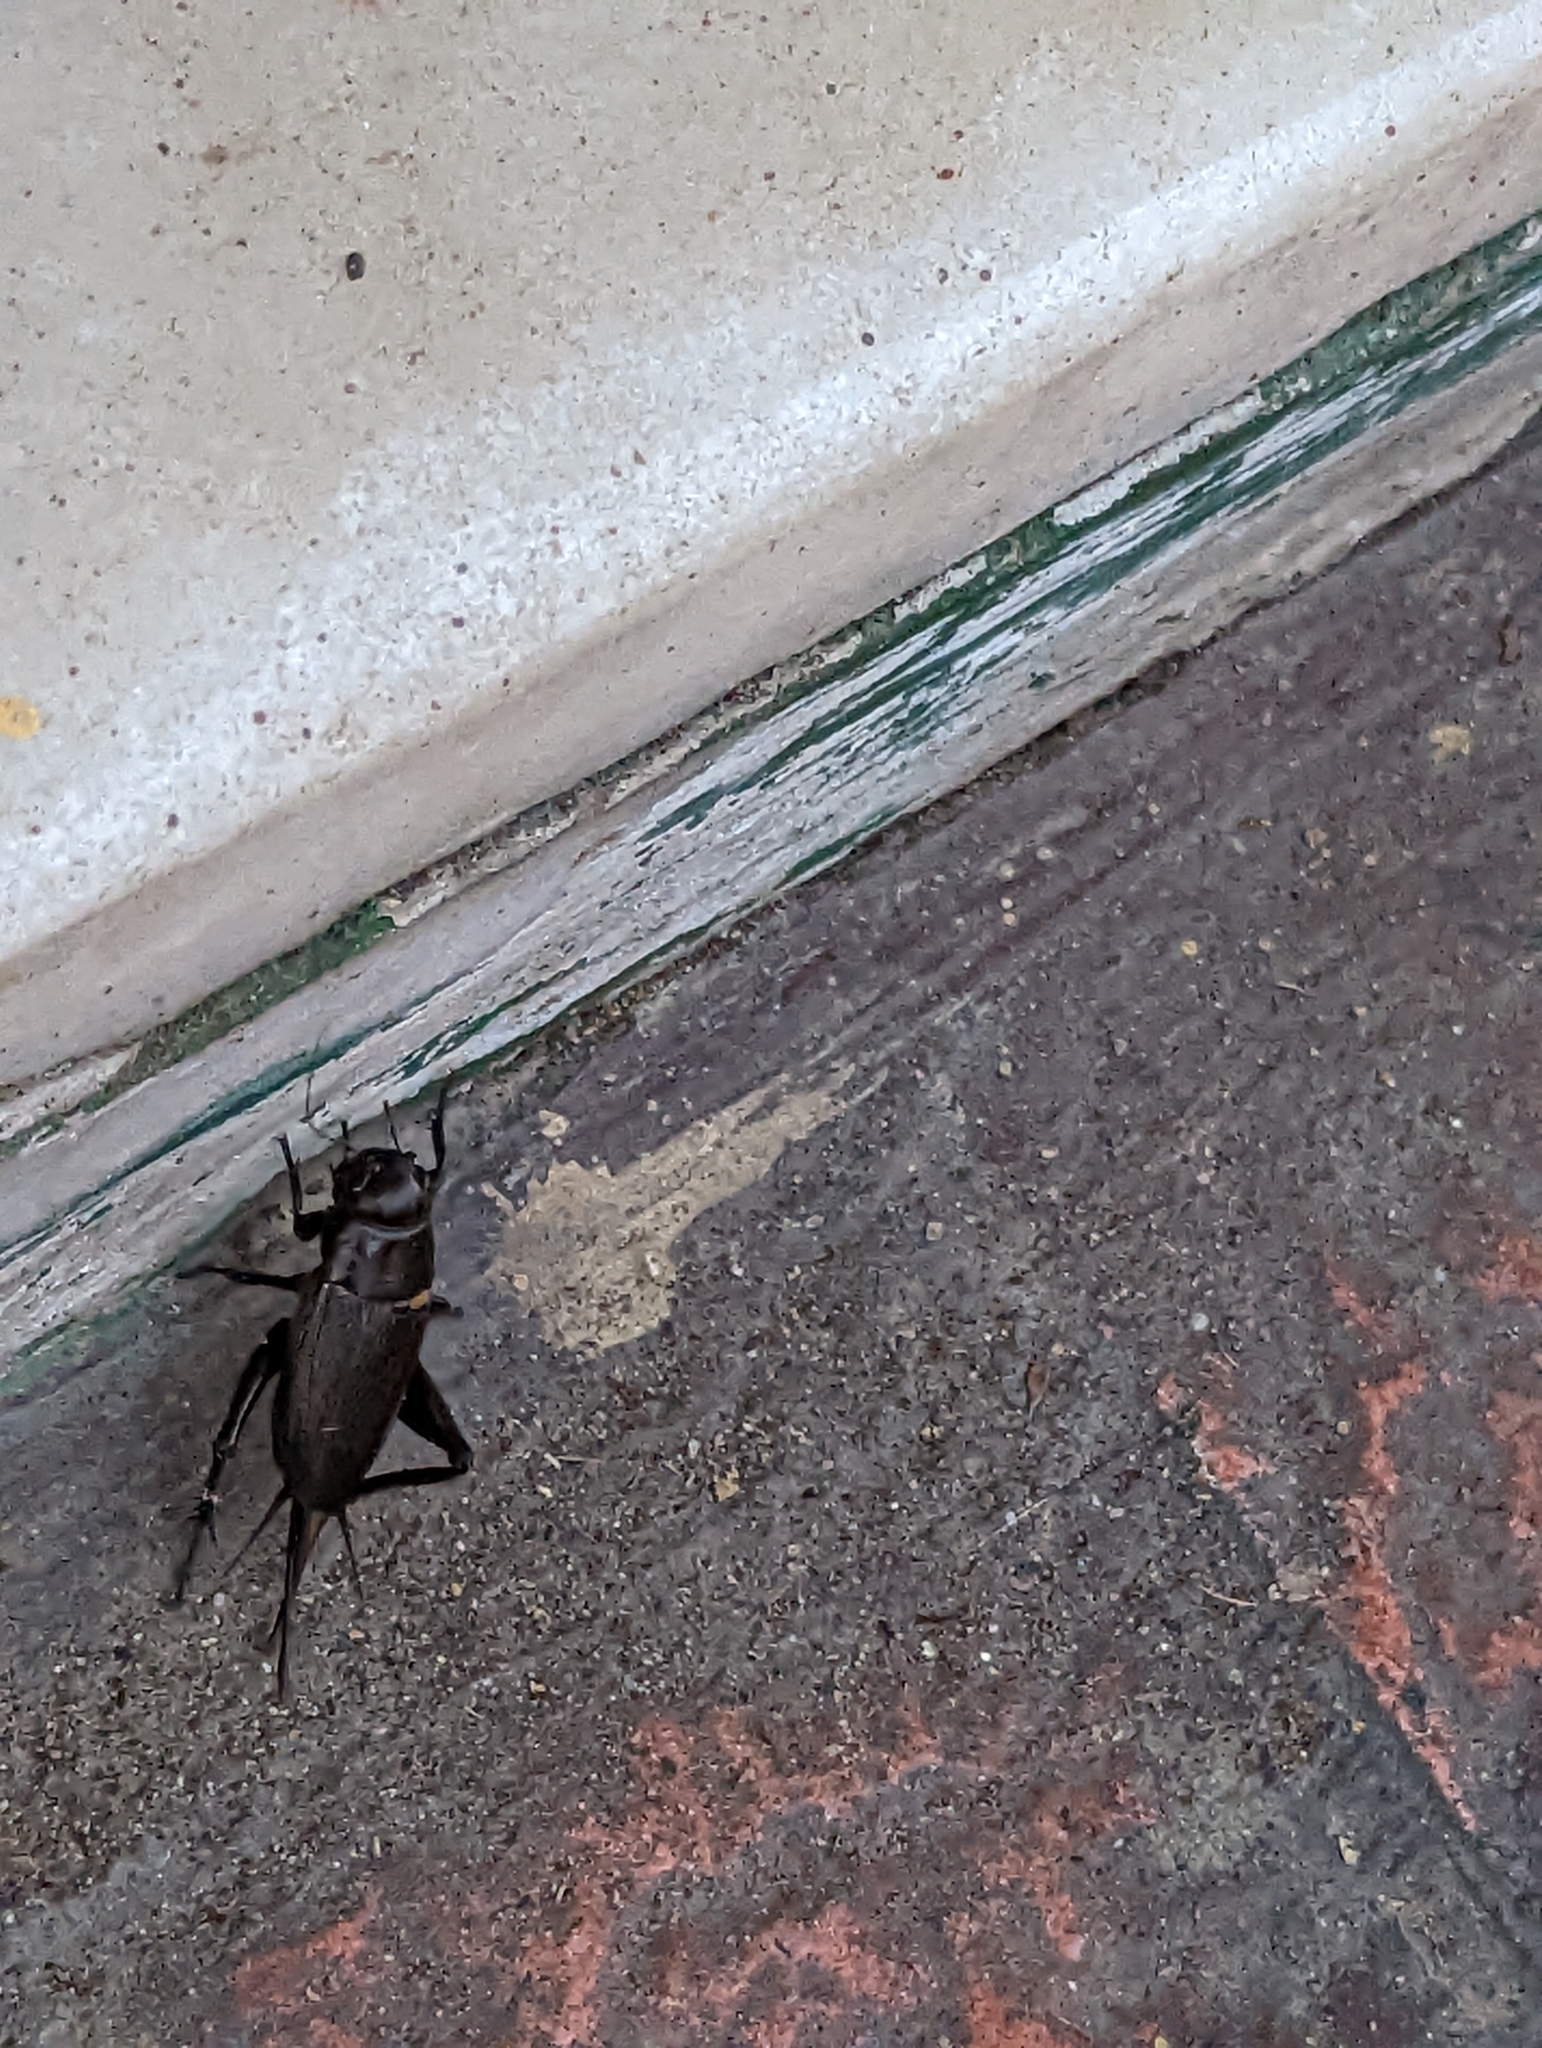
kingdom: Animalia
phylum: Arthropoda
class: Insecta
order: Orthoptera
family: Gryllidae
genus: Gryllus
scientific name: Gryllus bimaculatus
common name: Two-spotted cricket
